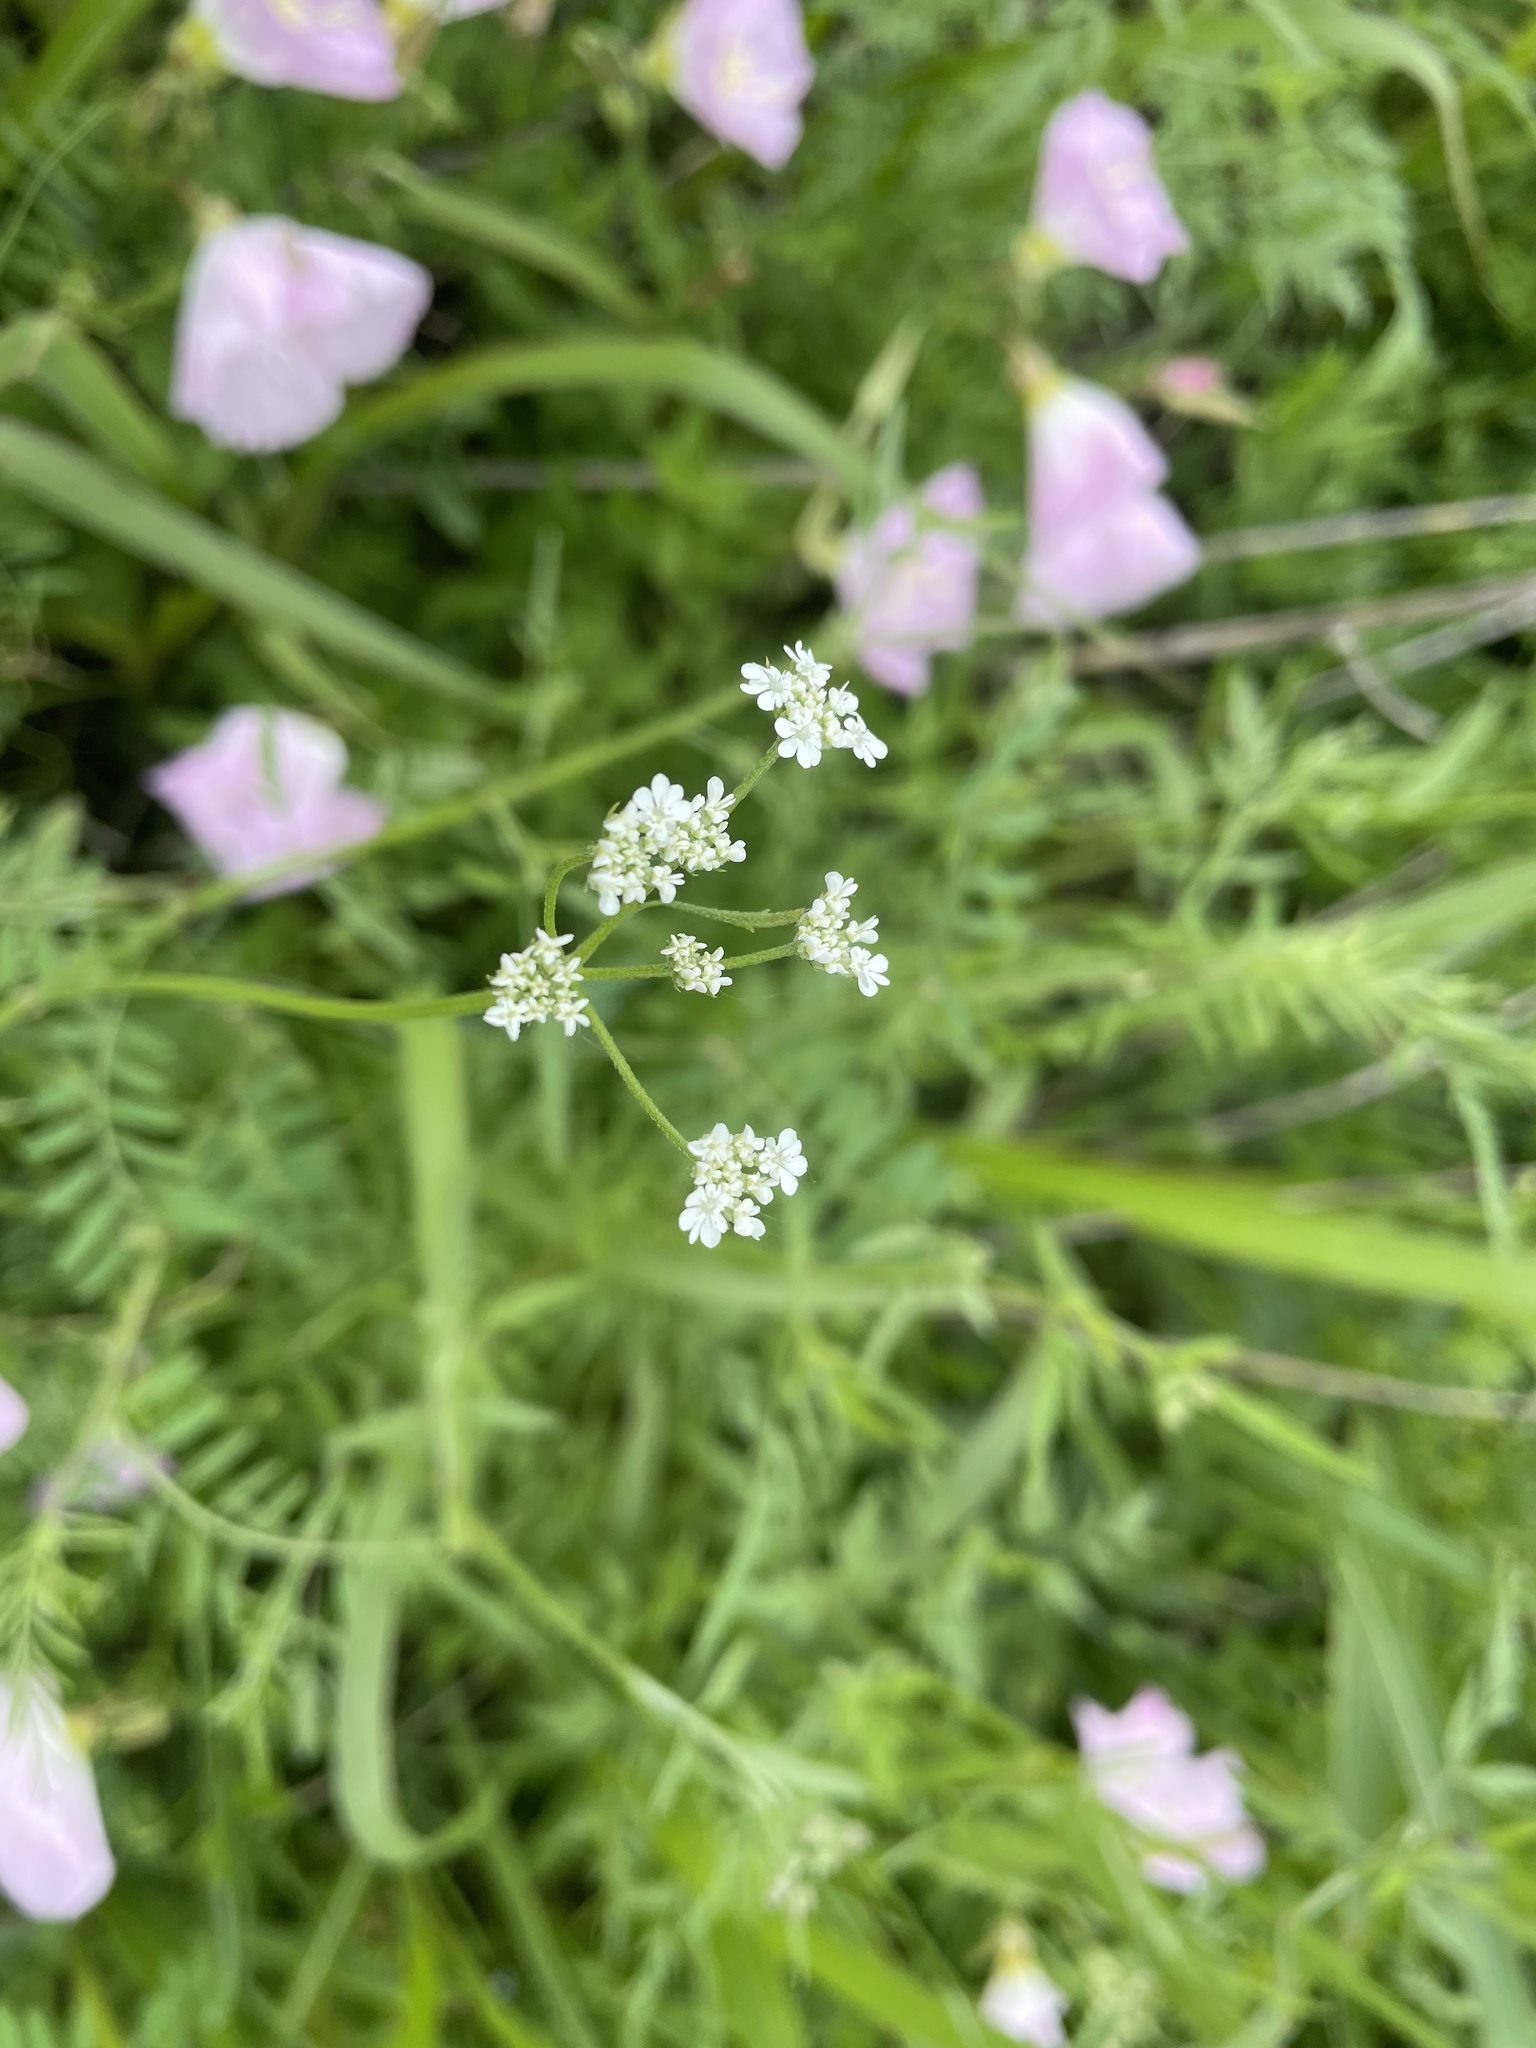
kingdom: Plantae
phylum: Tracheophyta
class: Magnoliopsida
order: Apiales
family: Apiaceae
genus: Torilis
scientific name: Torilis arvensis
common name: Spreading hedge-parsley
